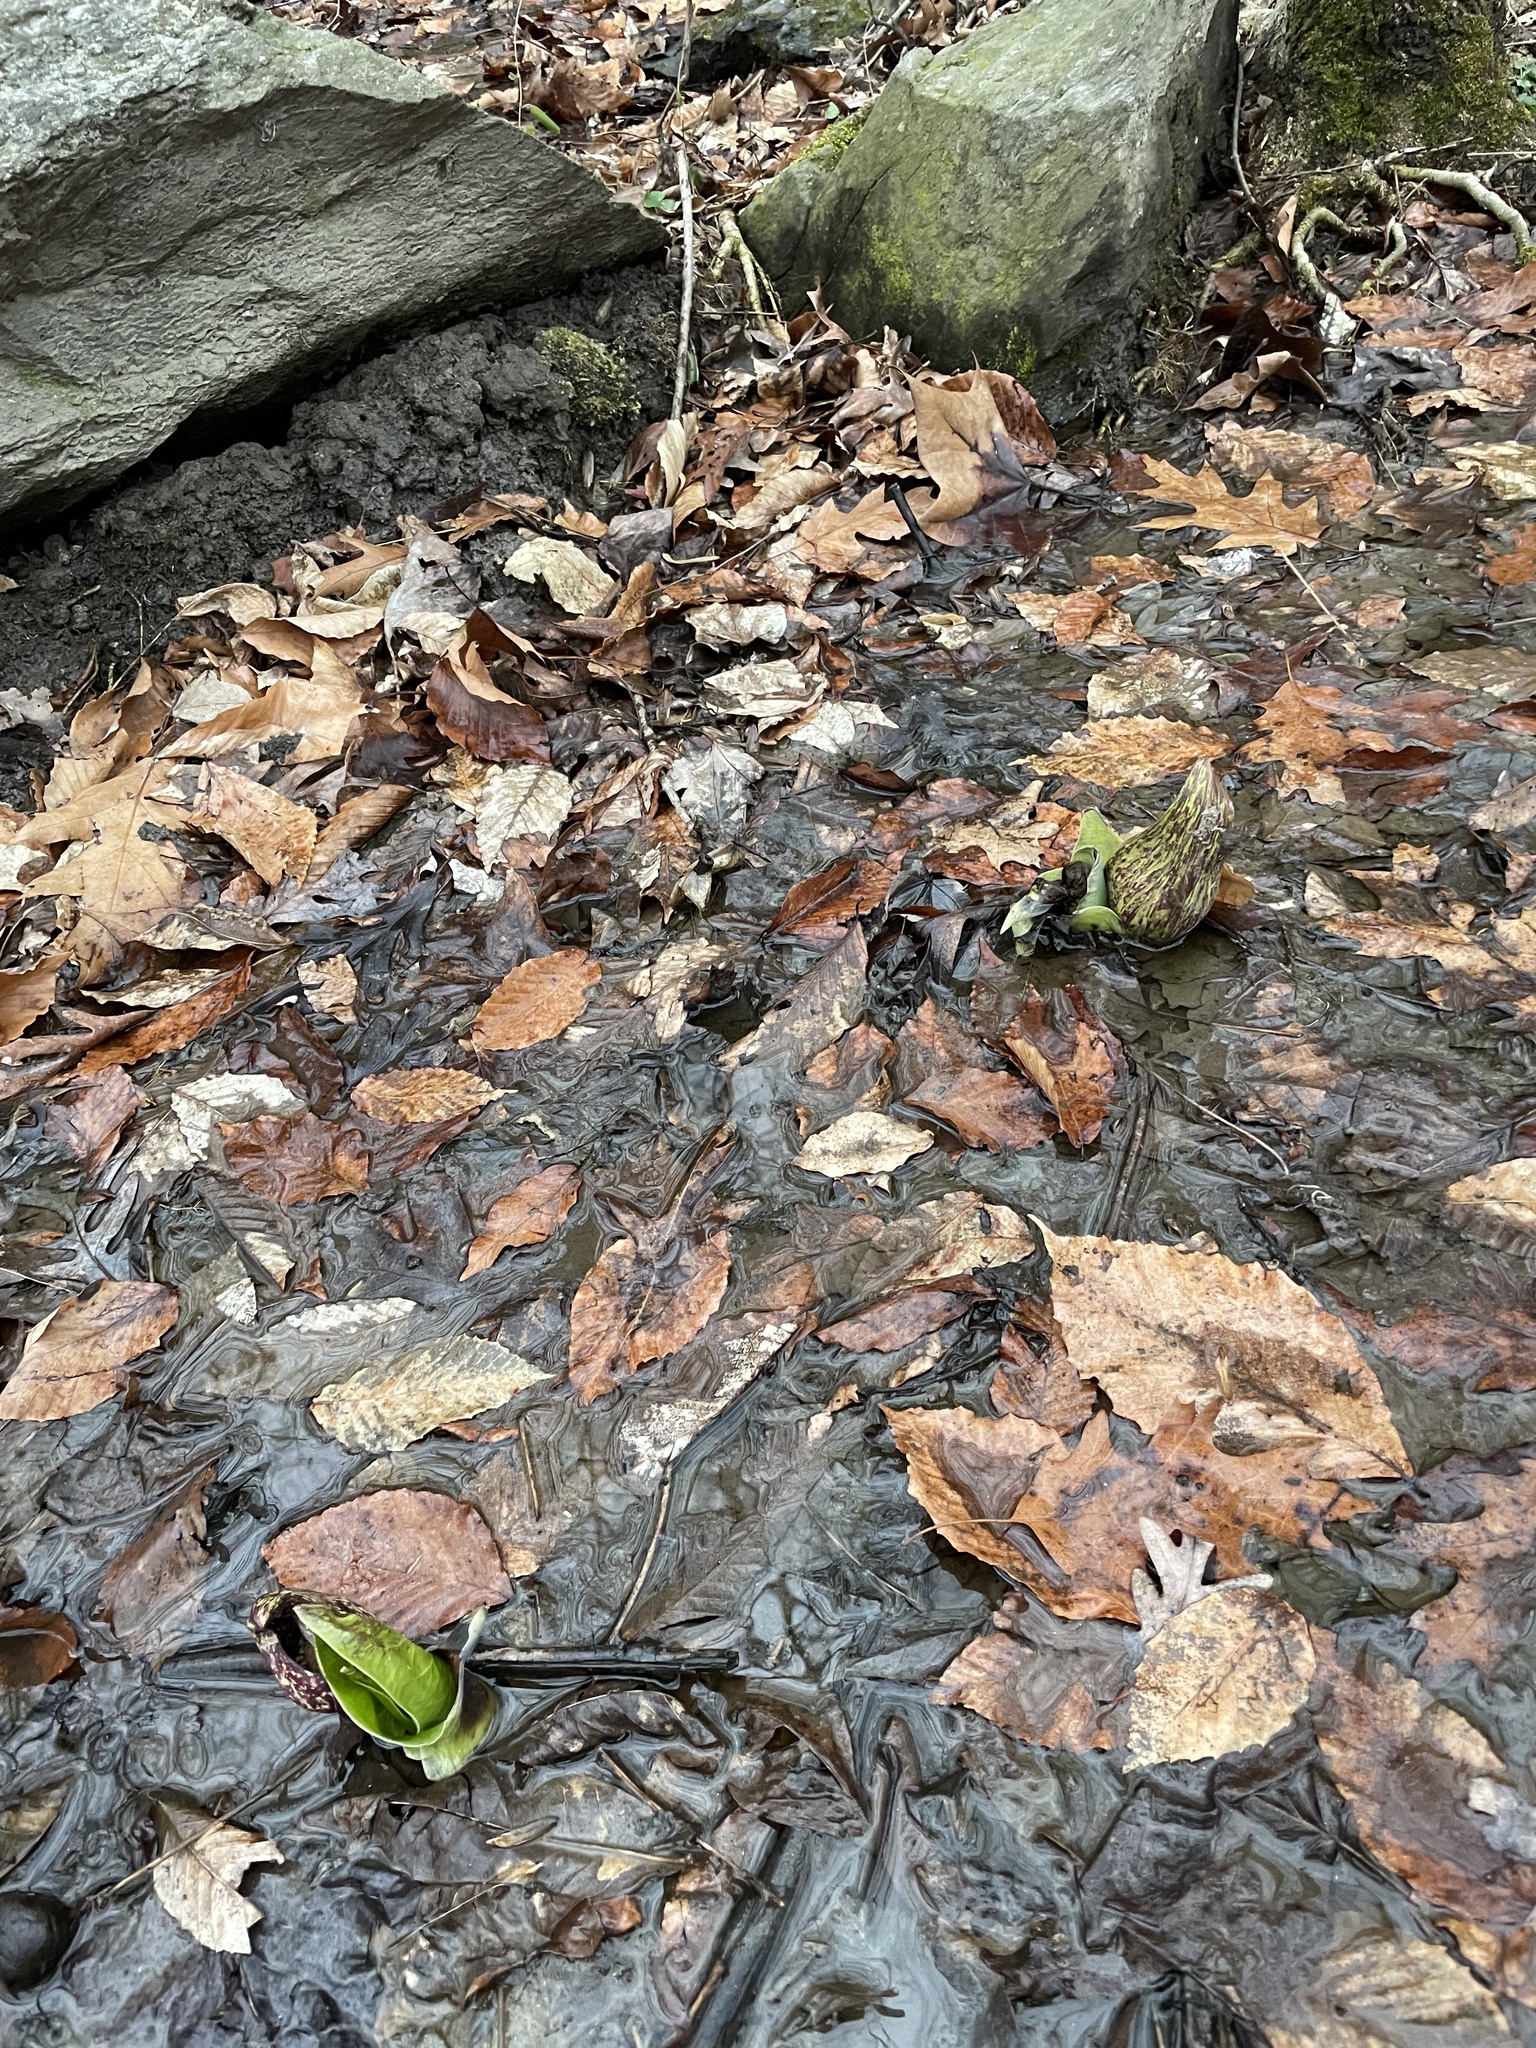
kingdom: Plantae
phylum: Tracheophyta
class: Liliopsida
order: Alismatales
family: Araceae
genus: Symplocarpus
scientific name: Symplocarpus foetidus
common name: Eastern skunk cabbage
